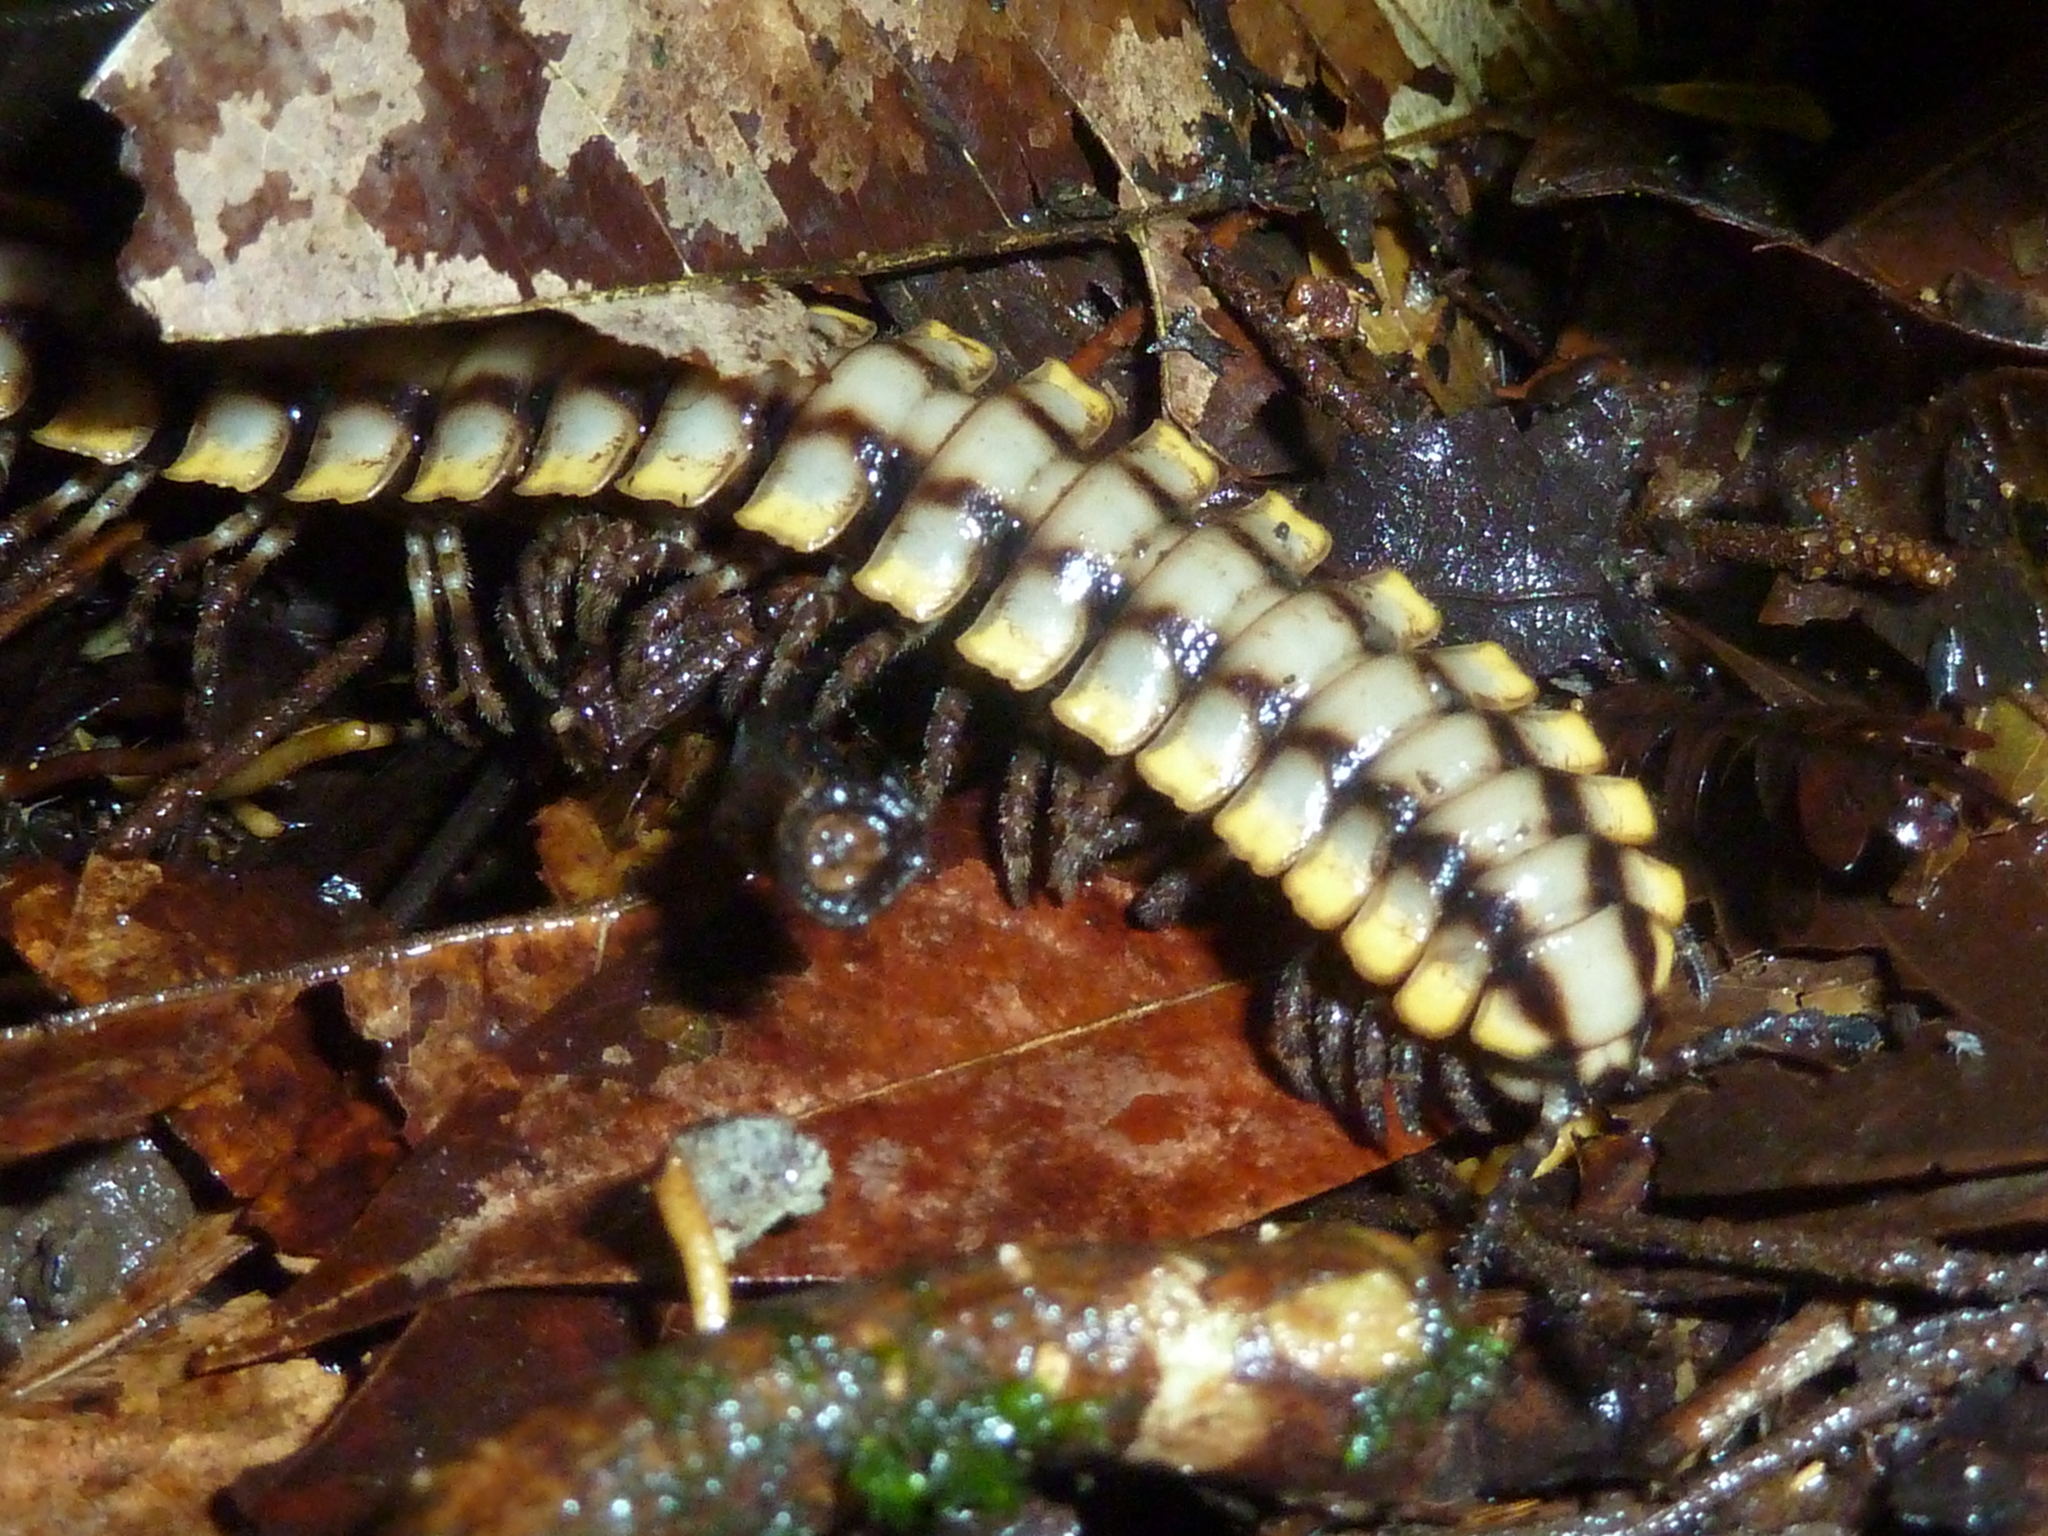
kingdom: Animalia
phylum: Arthropoda
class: Diplopoda
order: Polydesmida
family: Platyrhacidae
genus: Nyssodesmus
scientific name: Nyssodesmus python
